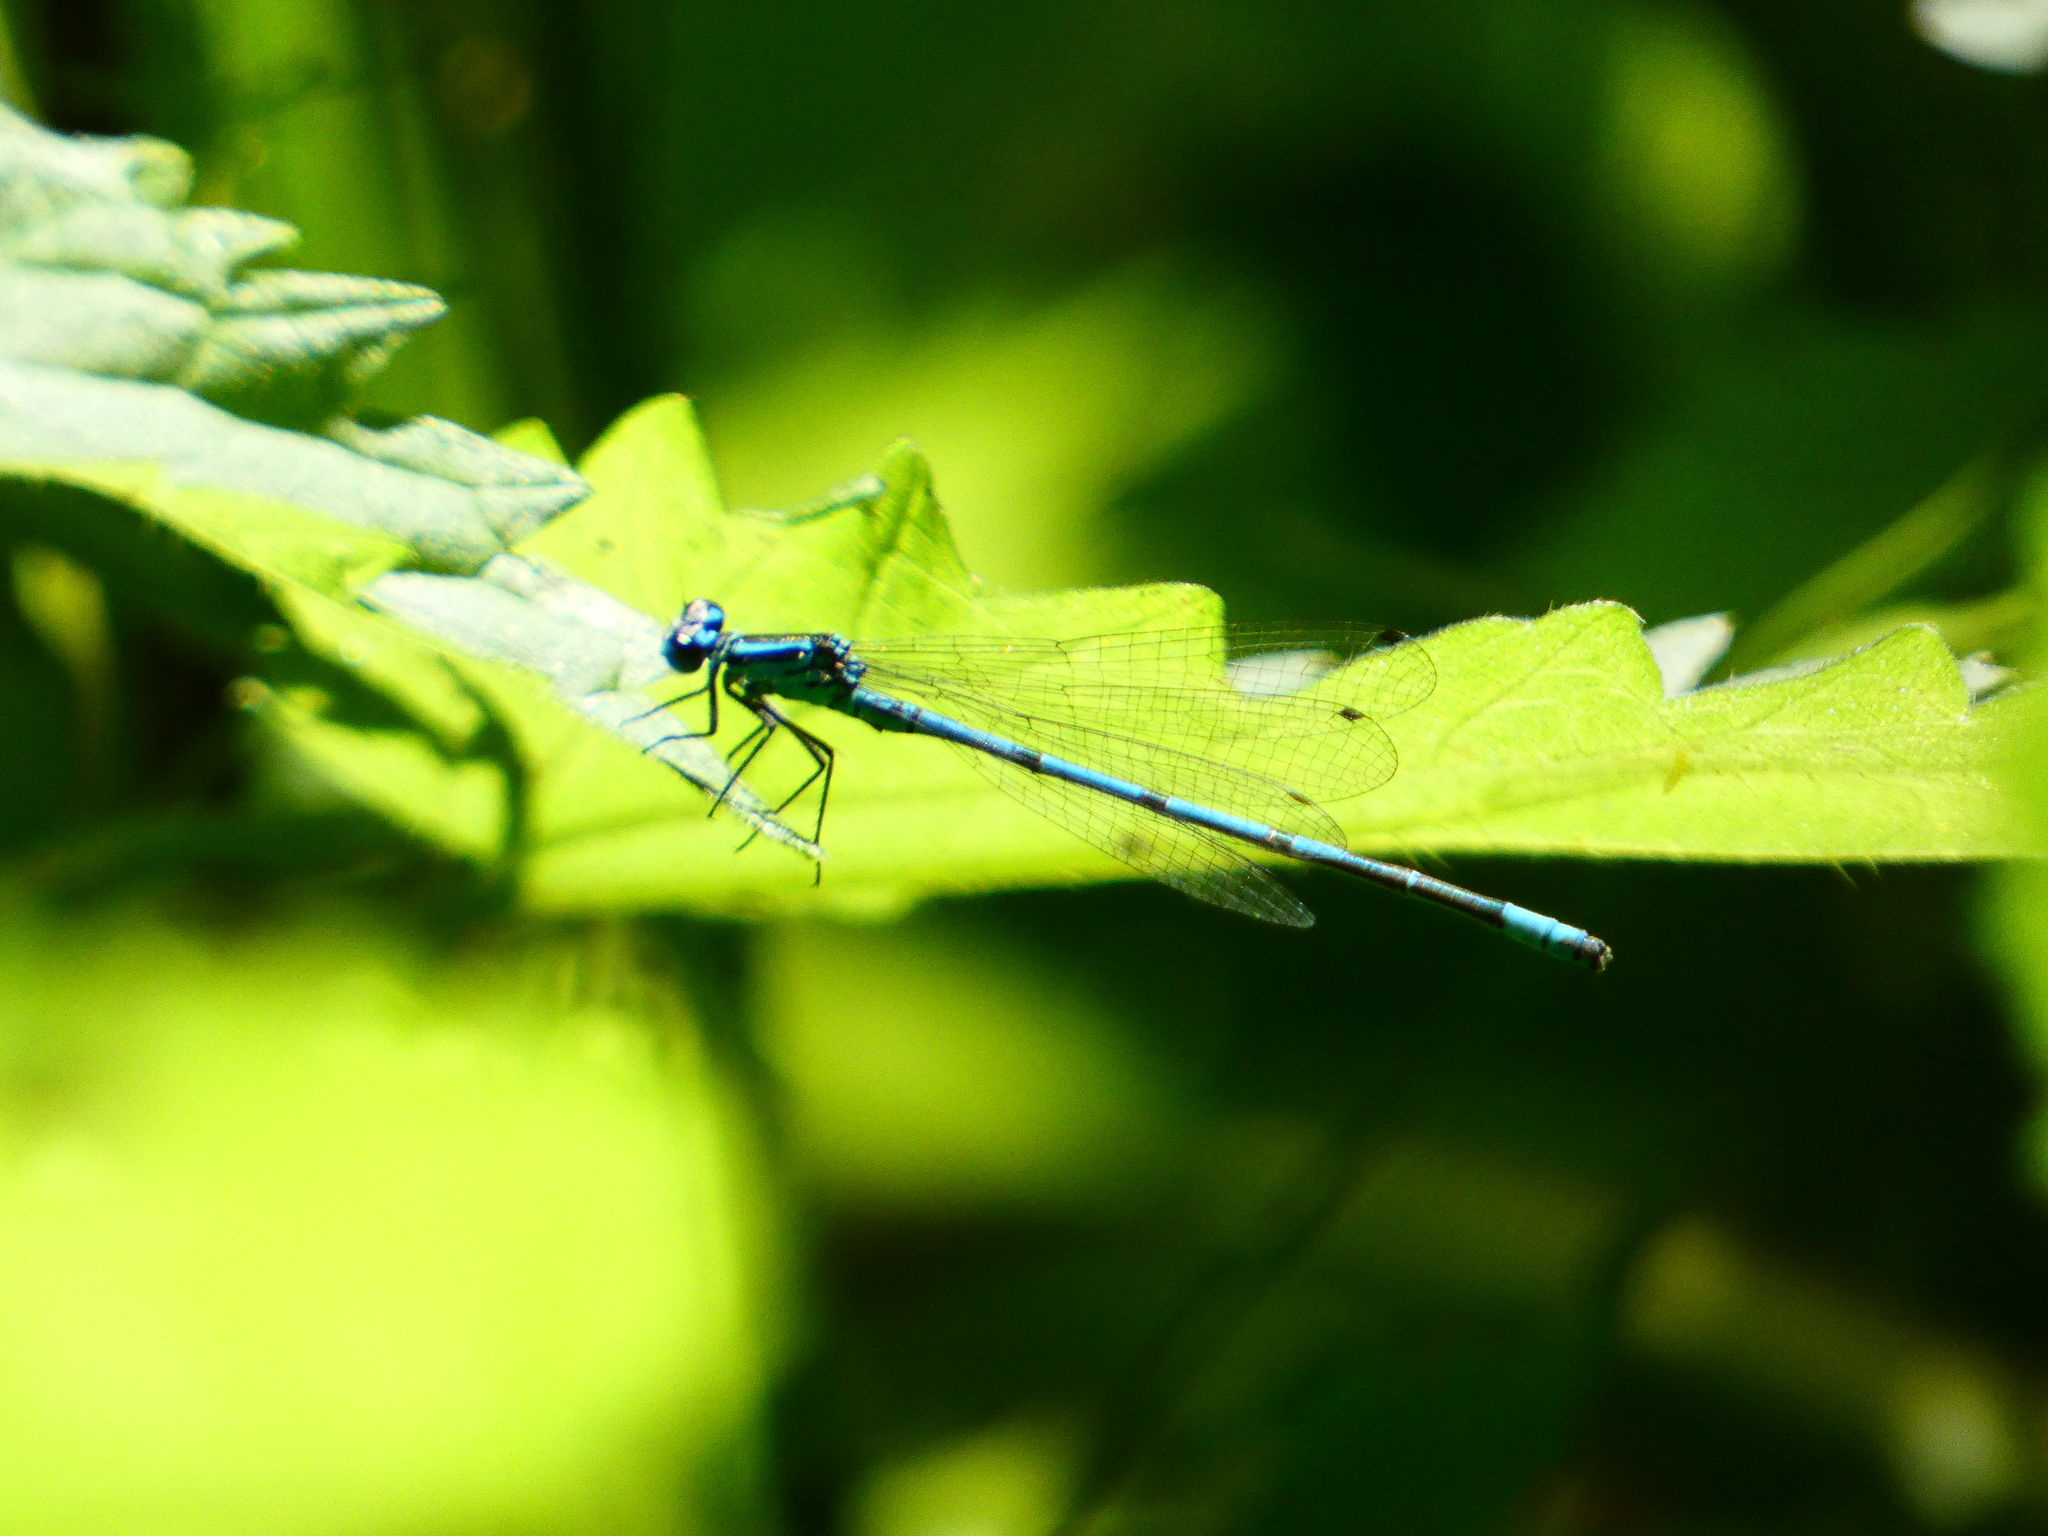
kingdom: Animalia
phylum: Arthropoda
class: Insecta
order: Odonata
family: Coenagrionidae
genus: Coenagrion
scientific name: Coenagrion puella
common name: Azure damselfly
